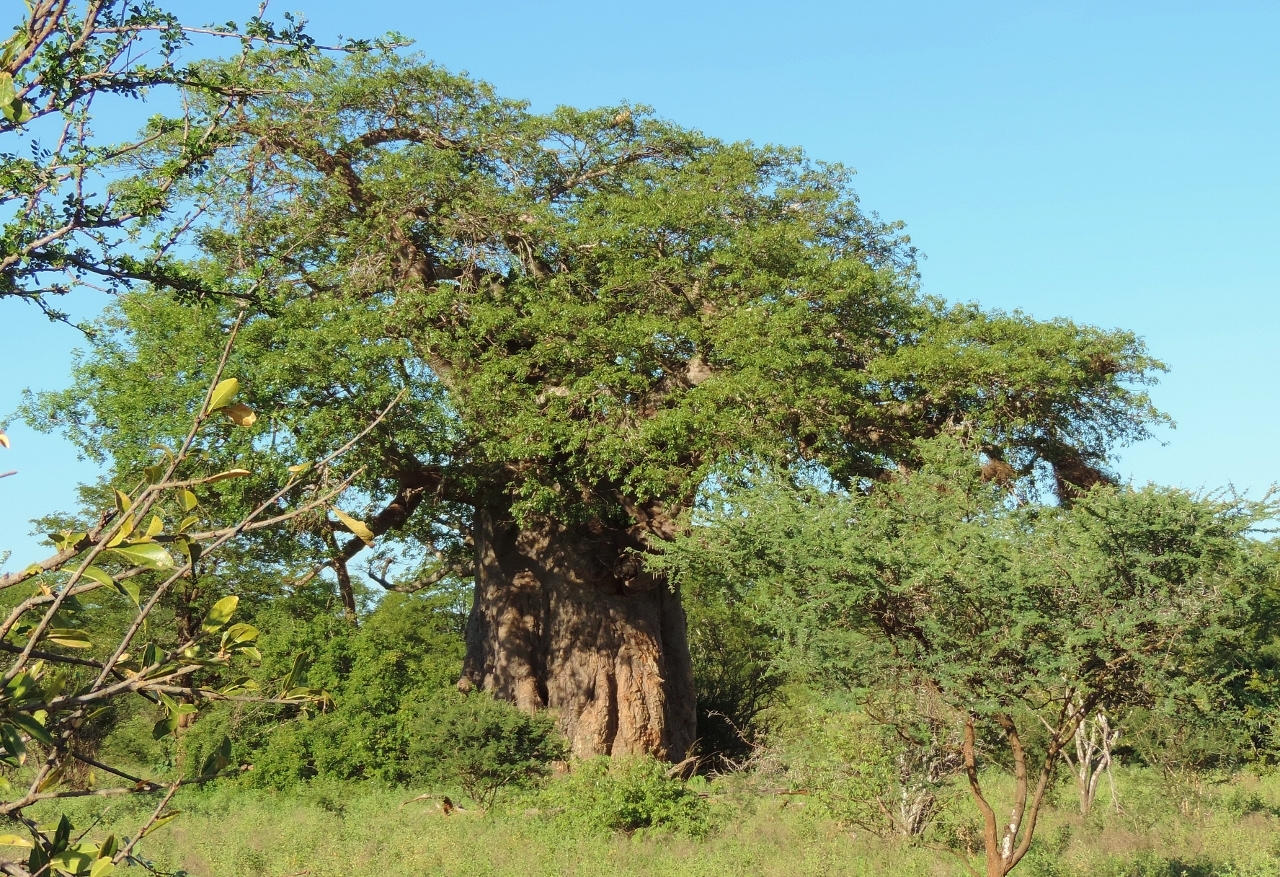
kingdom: Plantae
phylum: Tracheophyta
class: Magnoliopsida
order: Malvales
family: Malvaceae
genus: Adansonia
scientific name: Adansonia digitata
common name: Dead-rat-tree
